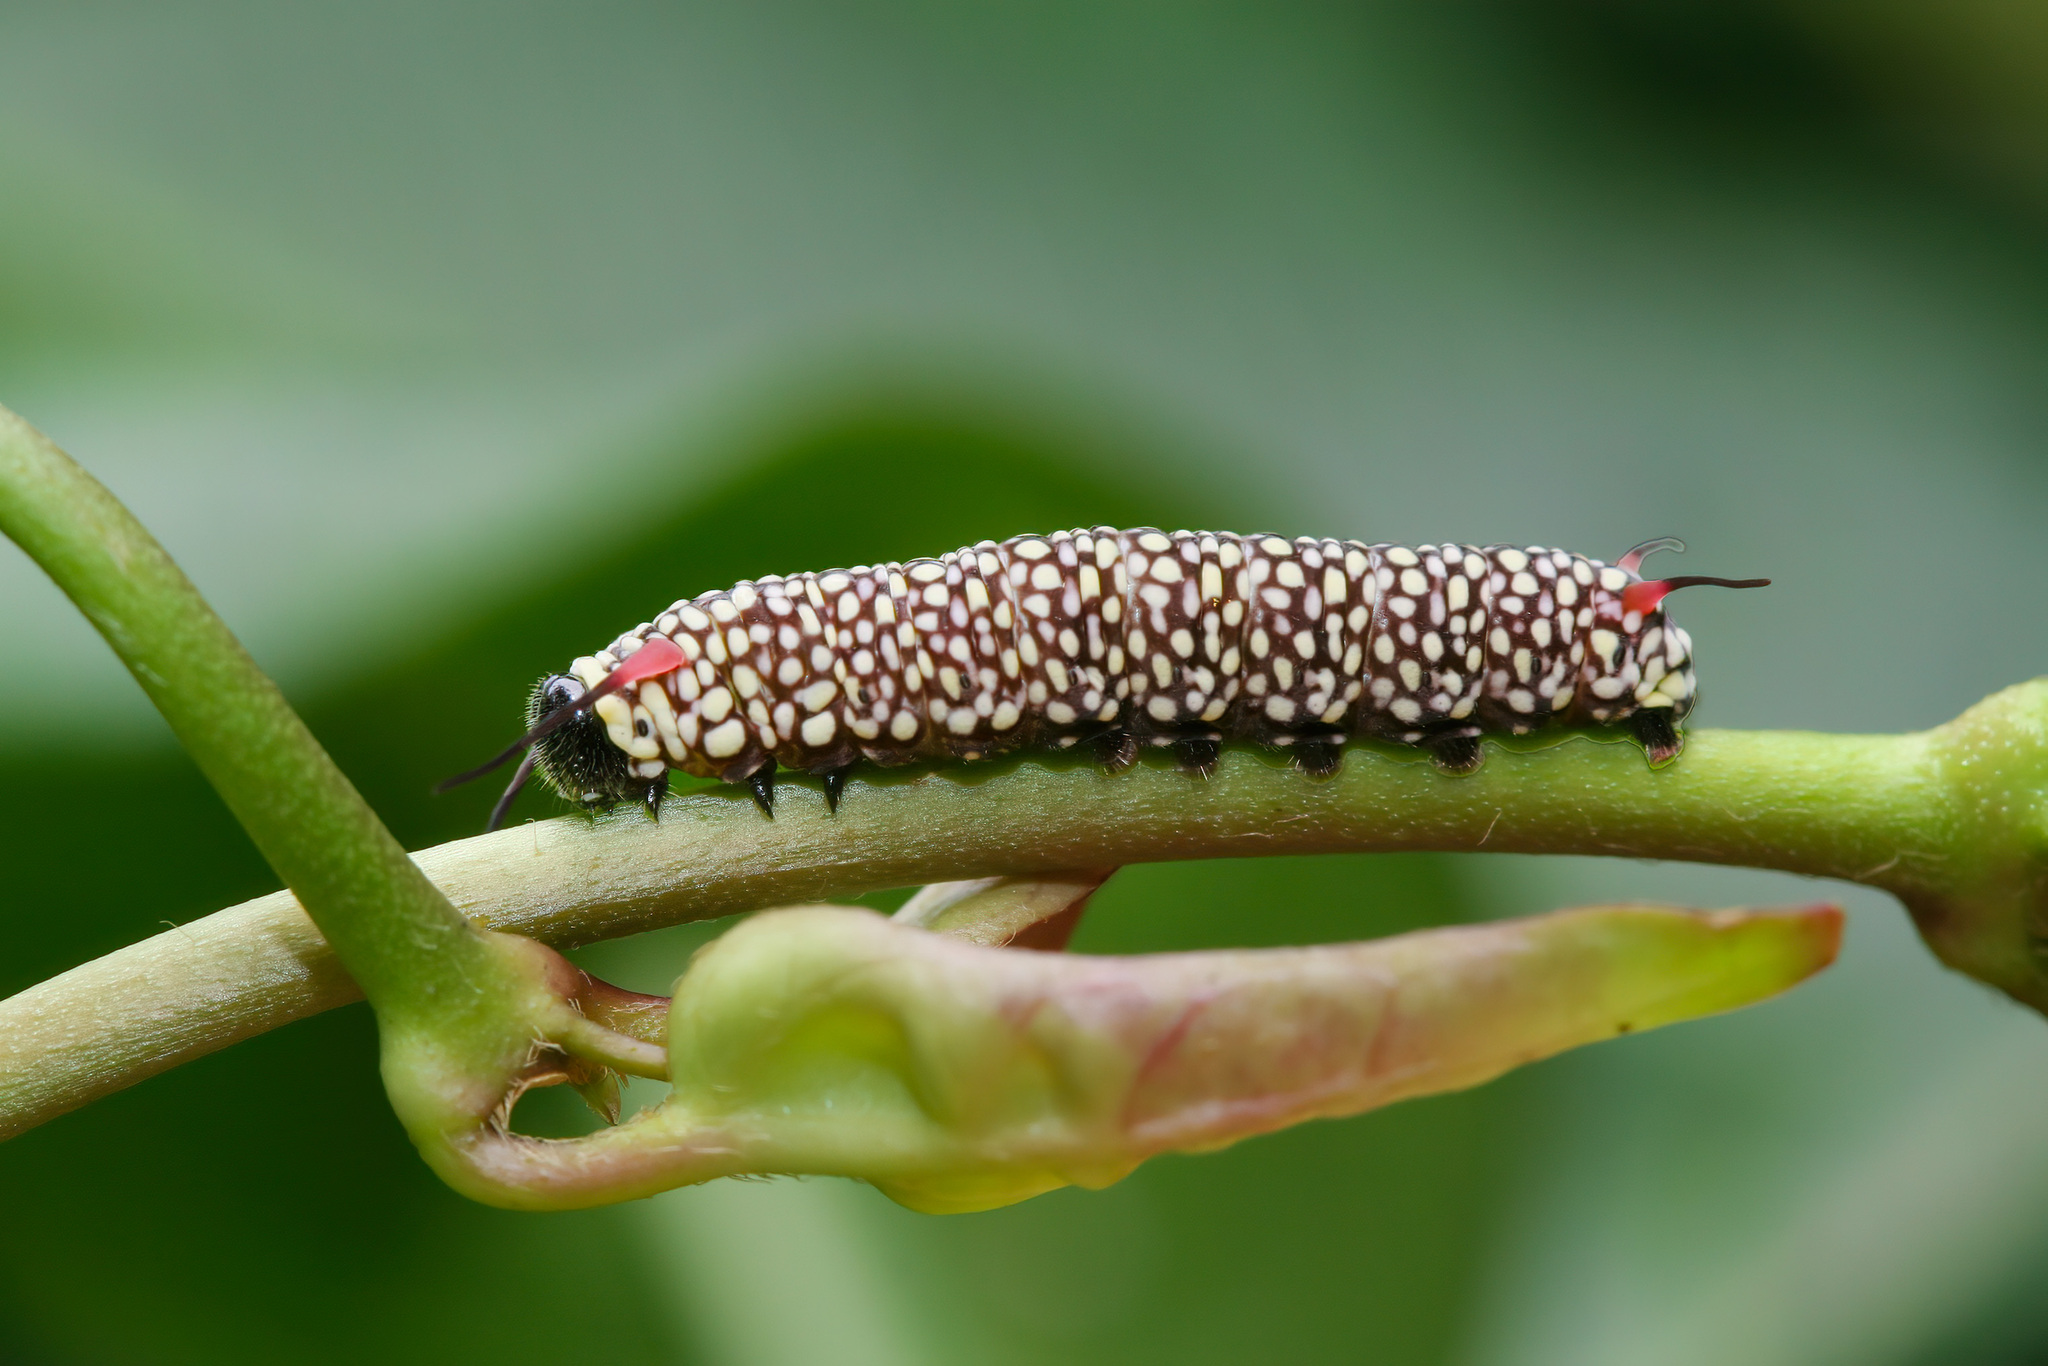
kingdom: Animalia
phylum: Arthropoda
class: Insecta
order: Lepidoptera
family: Nymphalidae
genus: Ideopsis
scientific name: Ideopsis vulgaris
